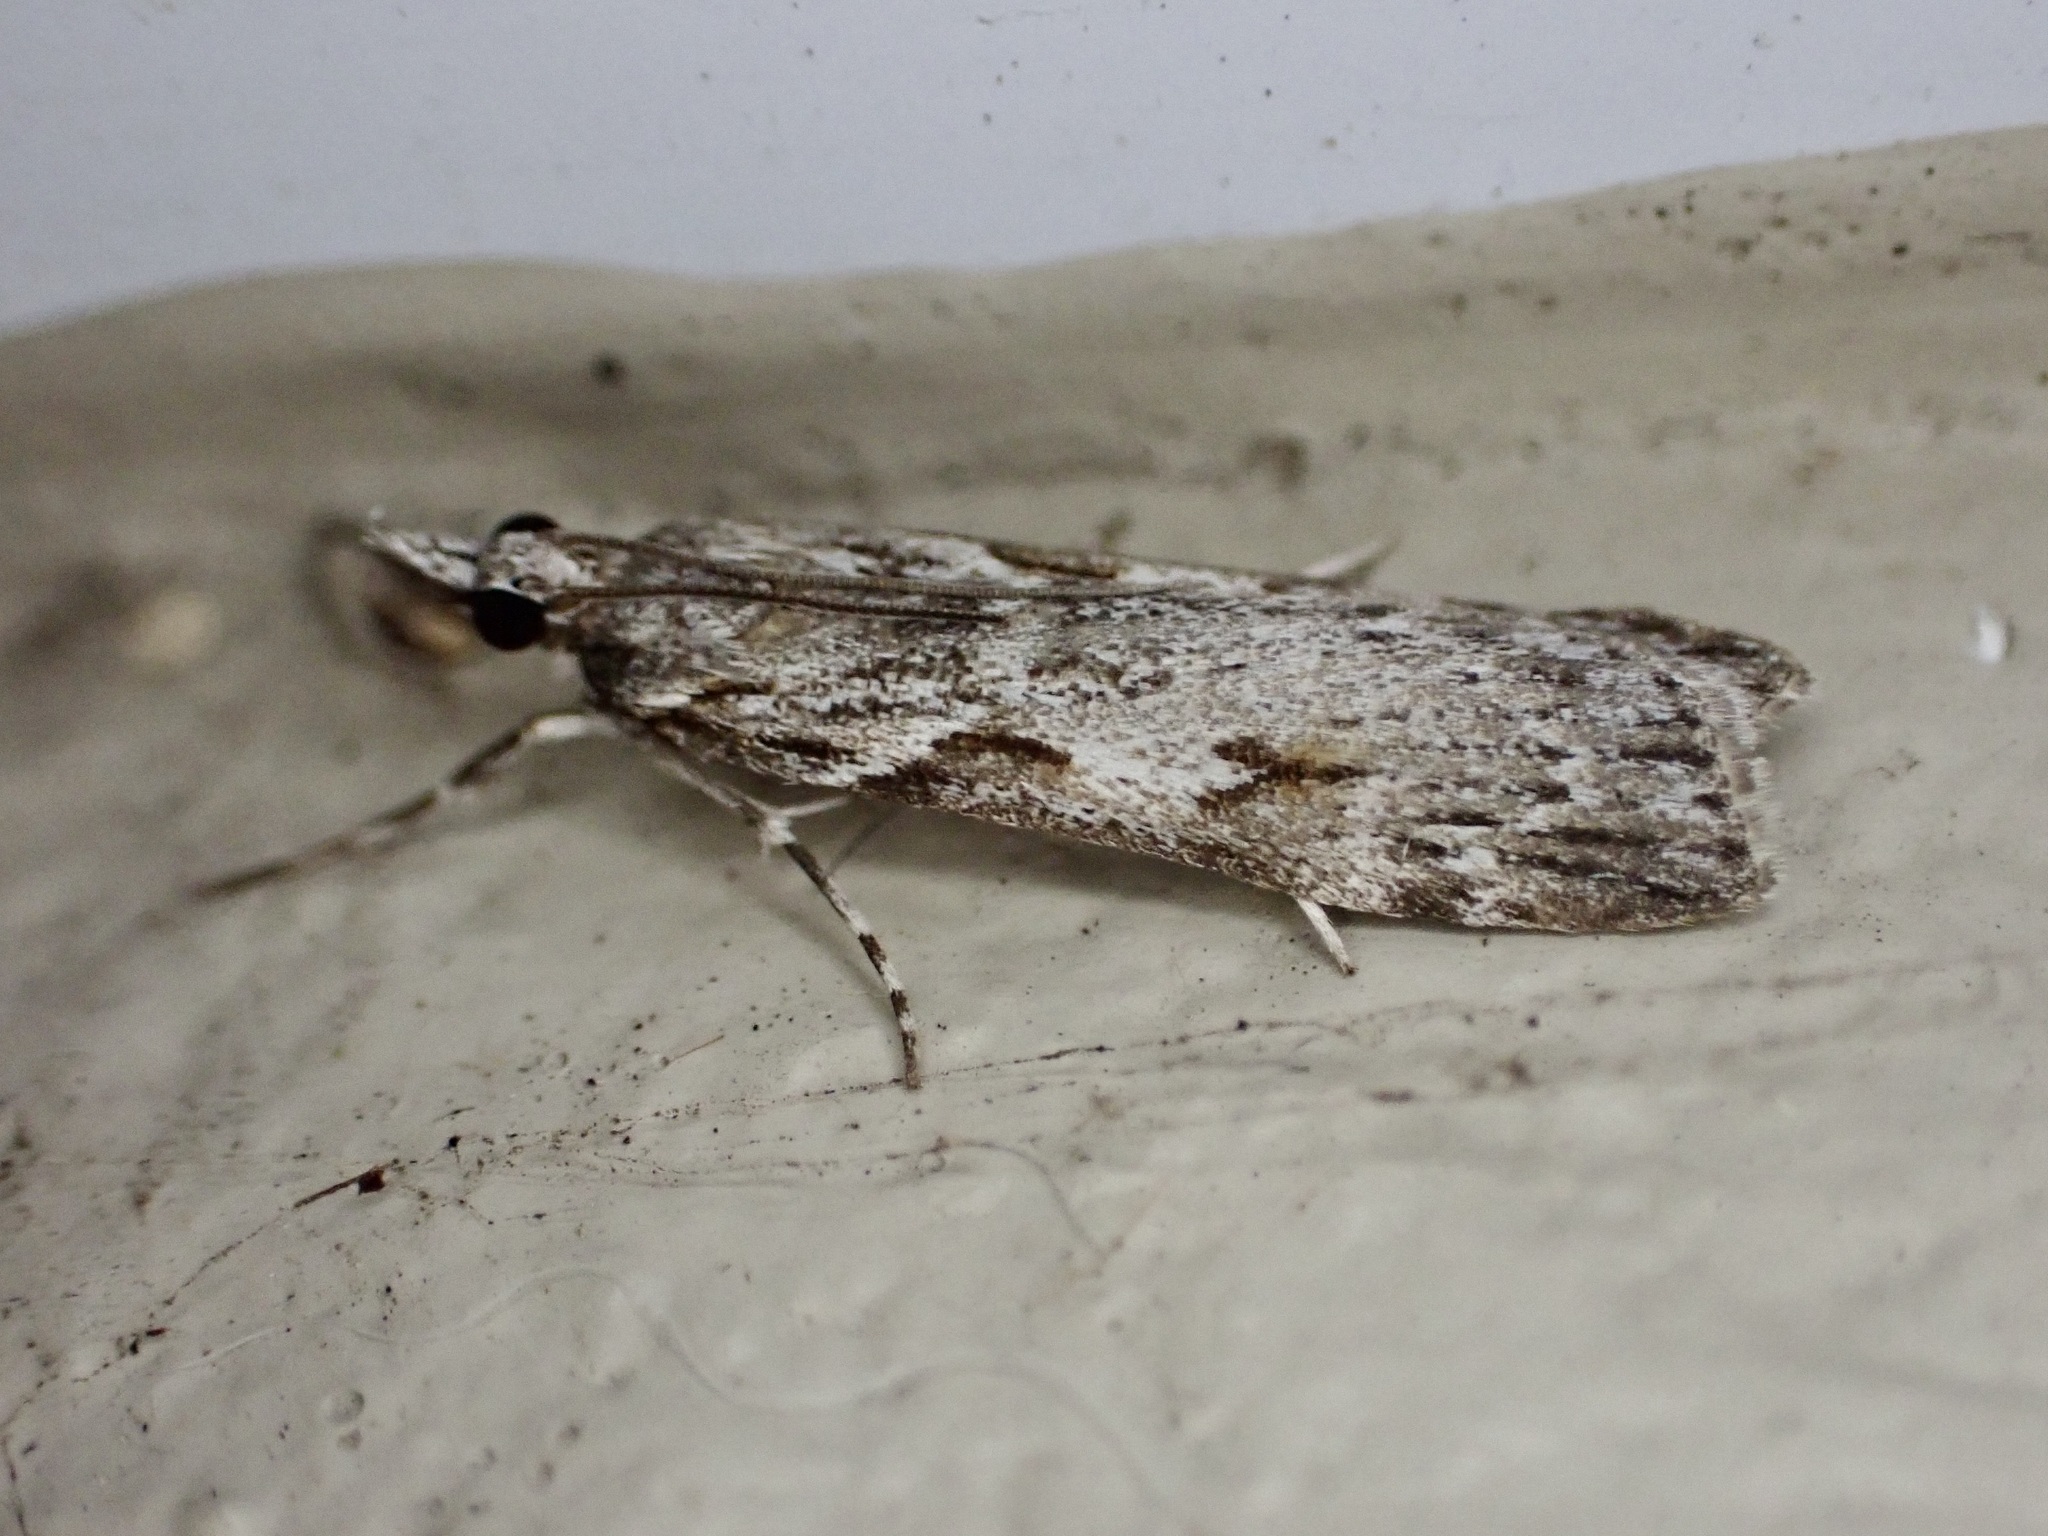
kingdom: Animalia
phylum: Arthropoda
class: Insecta
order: Lepidoptera
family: Crambidae
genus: Scoparia
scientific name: Scoparia halopis
